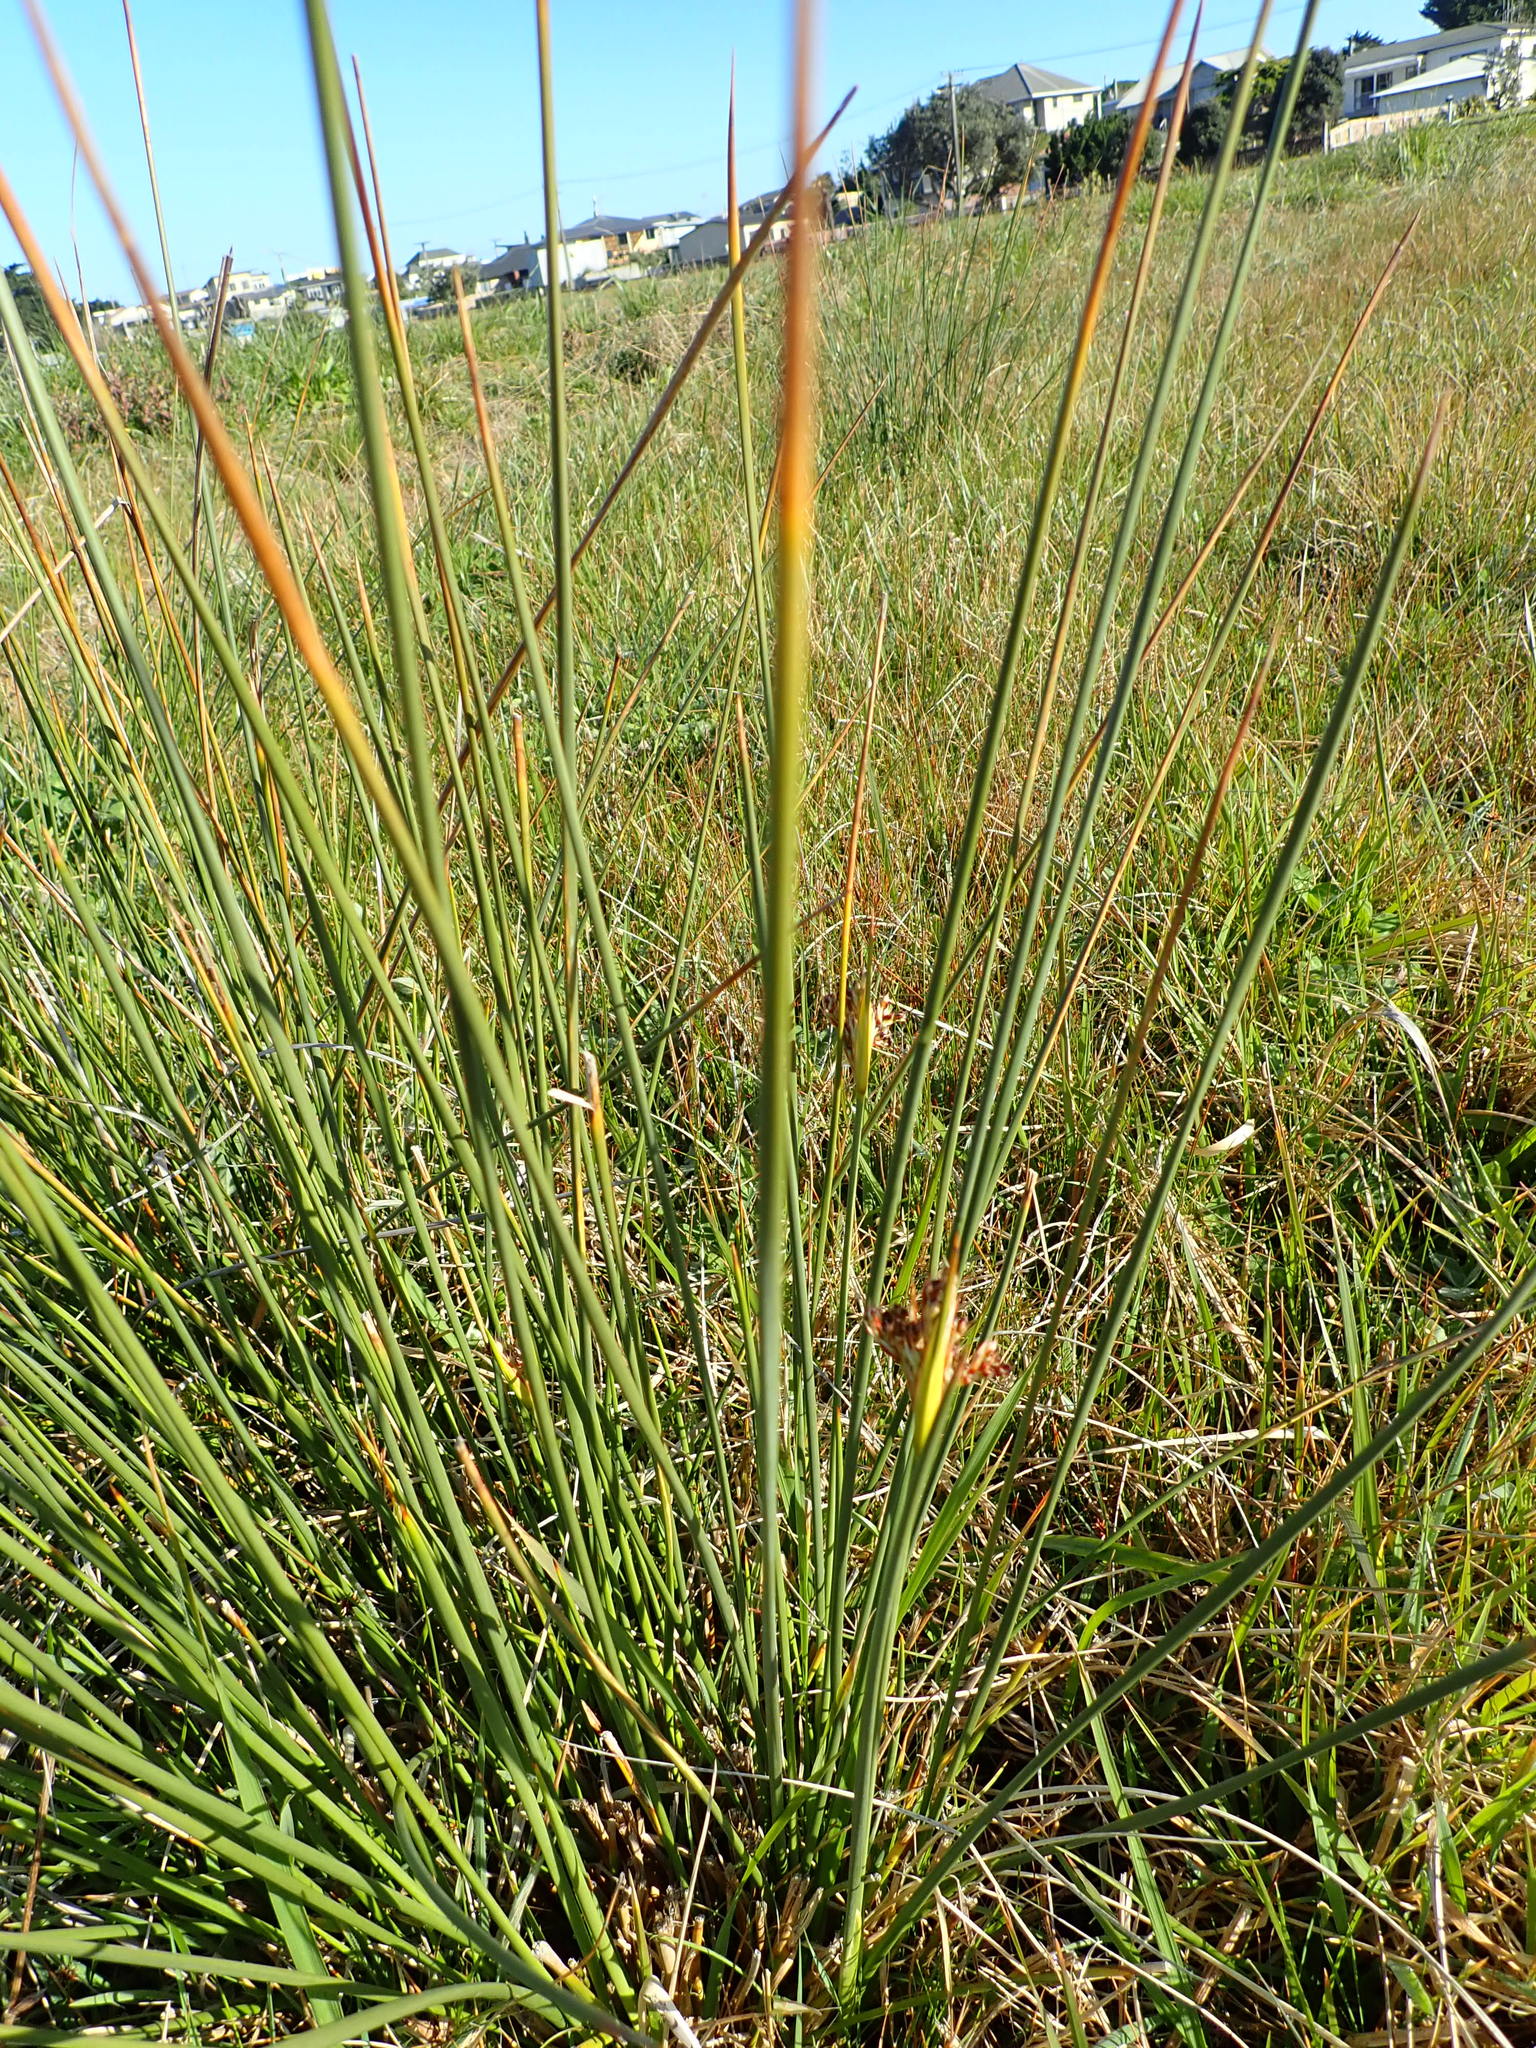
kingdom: Plantae
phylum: Tracheophyta
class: Liliopsida
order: Poales
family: Juncaceae
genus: Juncus
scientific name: Juncus acutus
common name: Sharp rush
